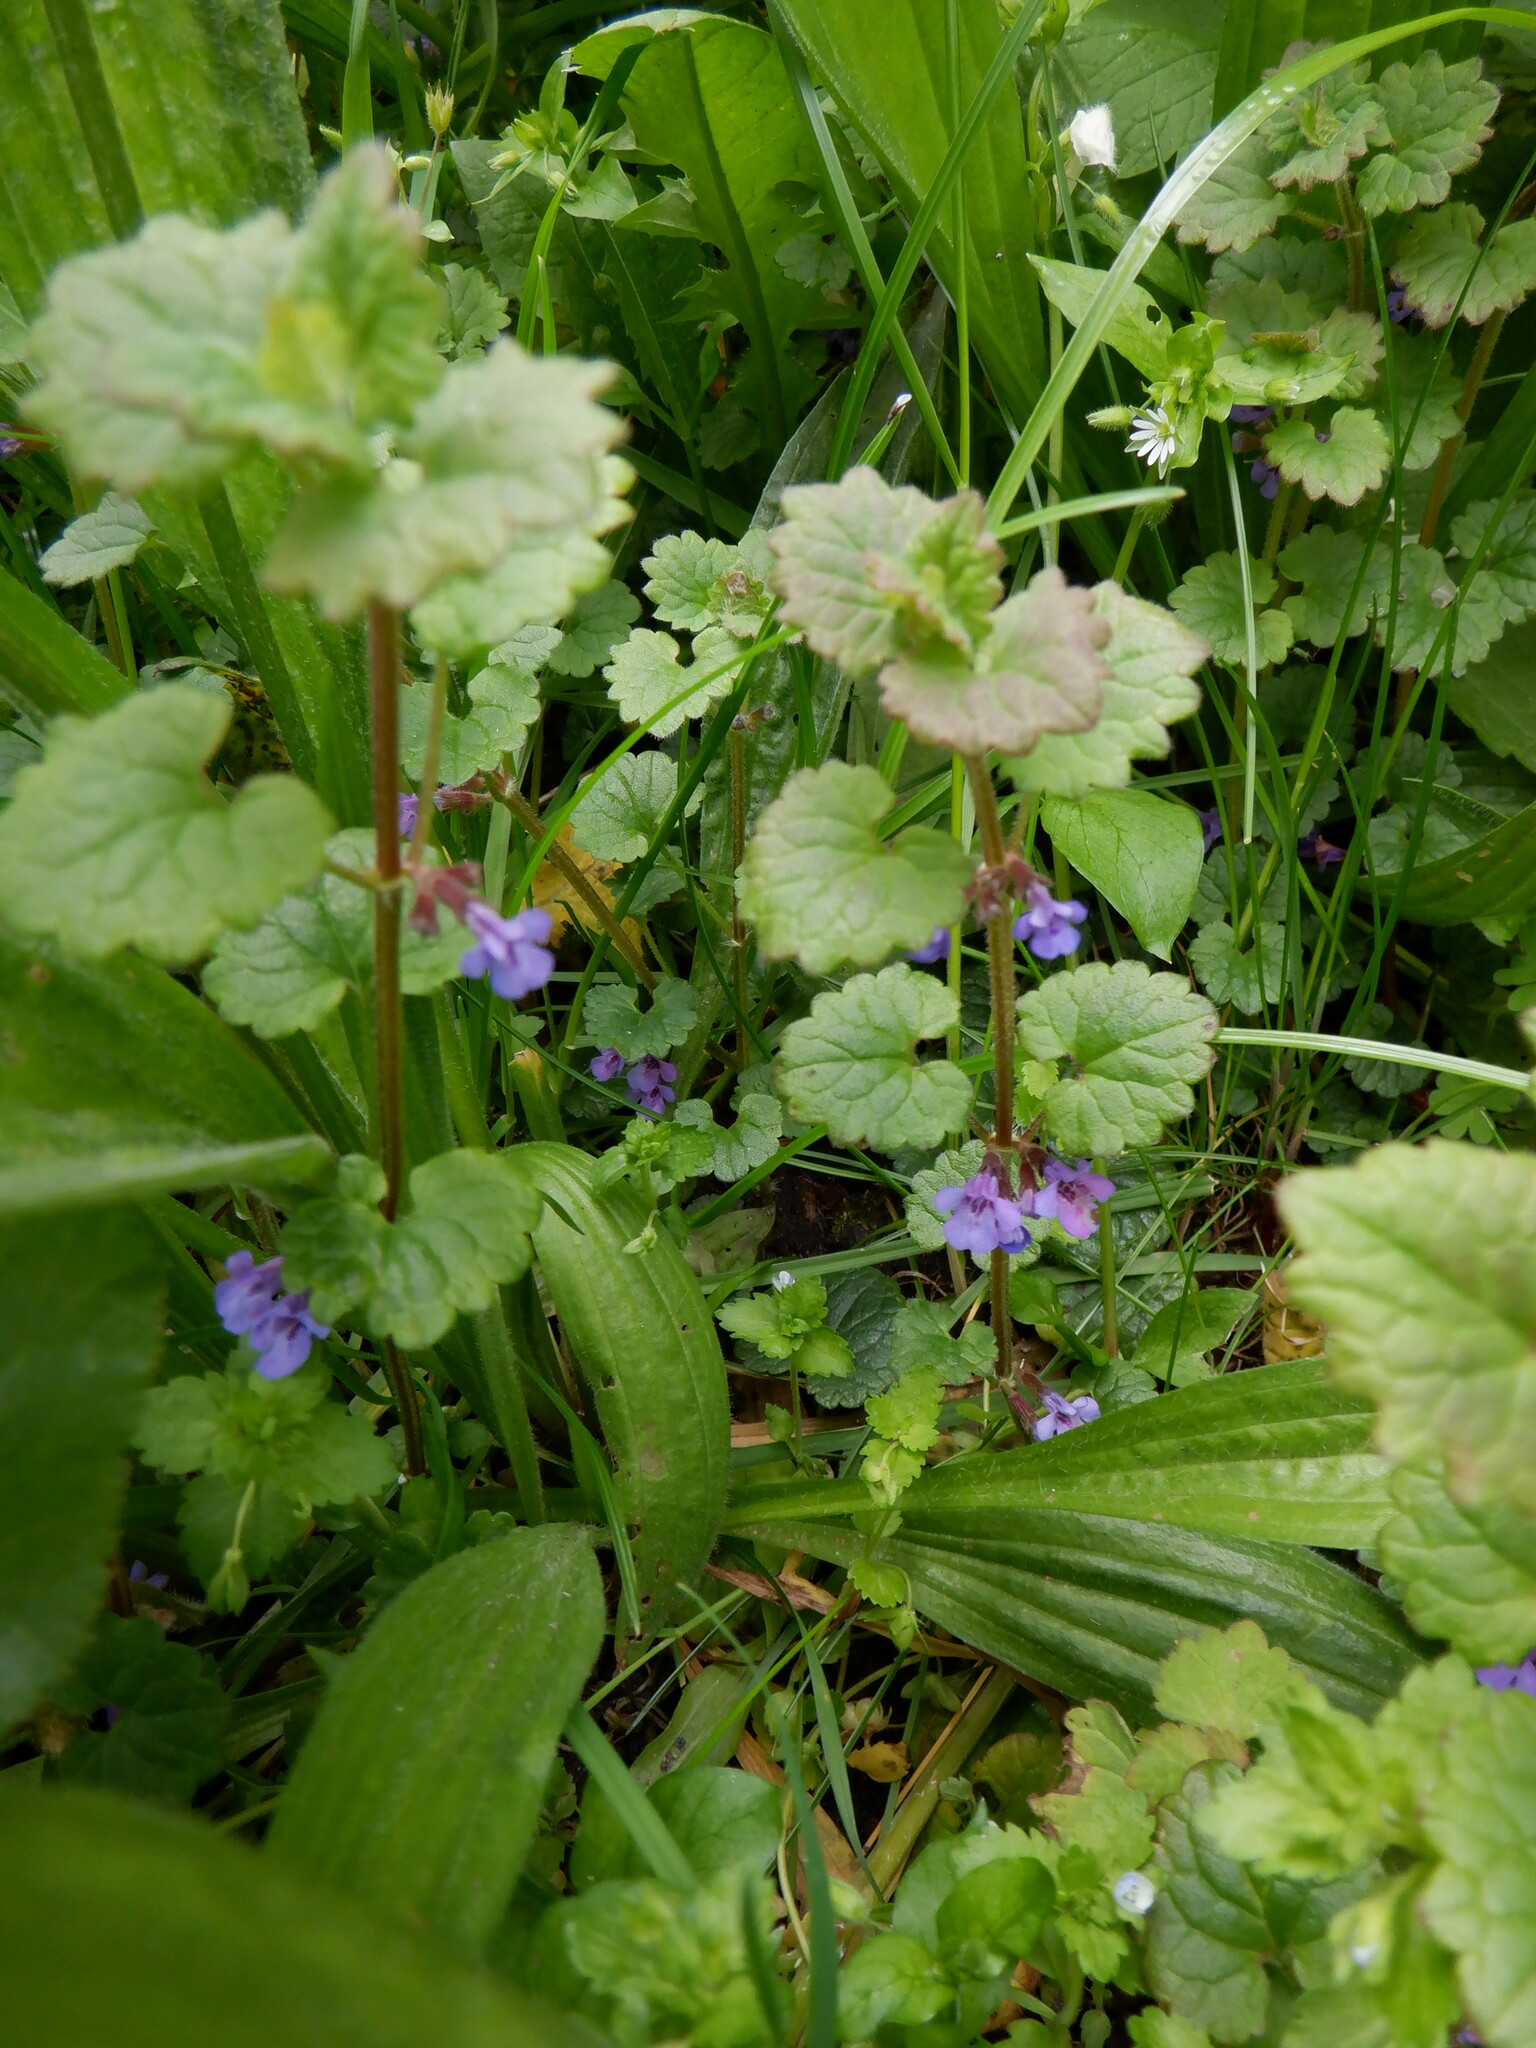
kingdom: Plantae
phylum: Tracheophyta
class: Magnoliopsida
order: Lamiales
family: Lamiaceae
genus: Glechoma
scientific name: Glechoma hederacea
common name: Ground ivy
